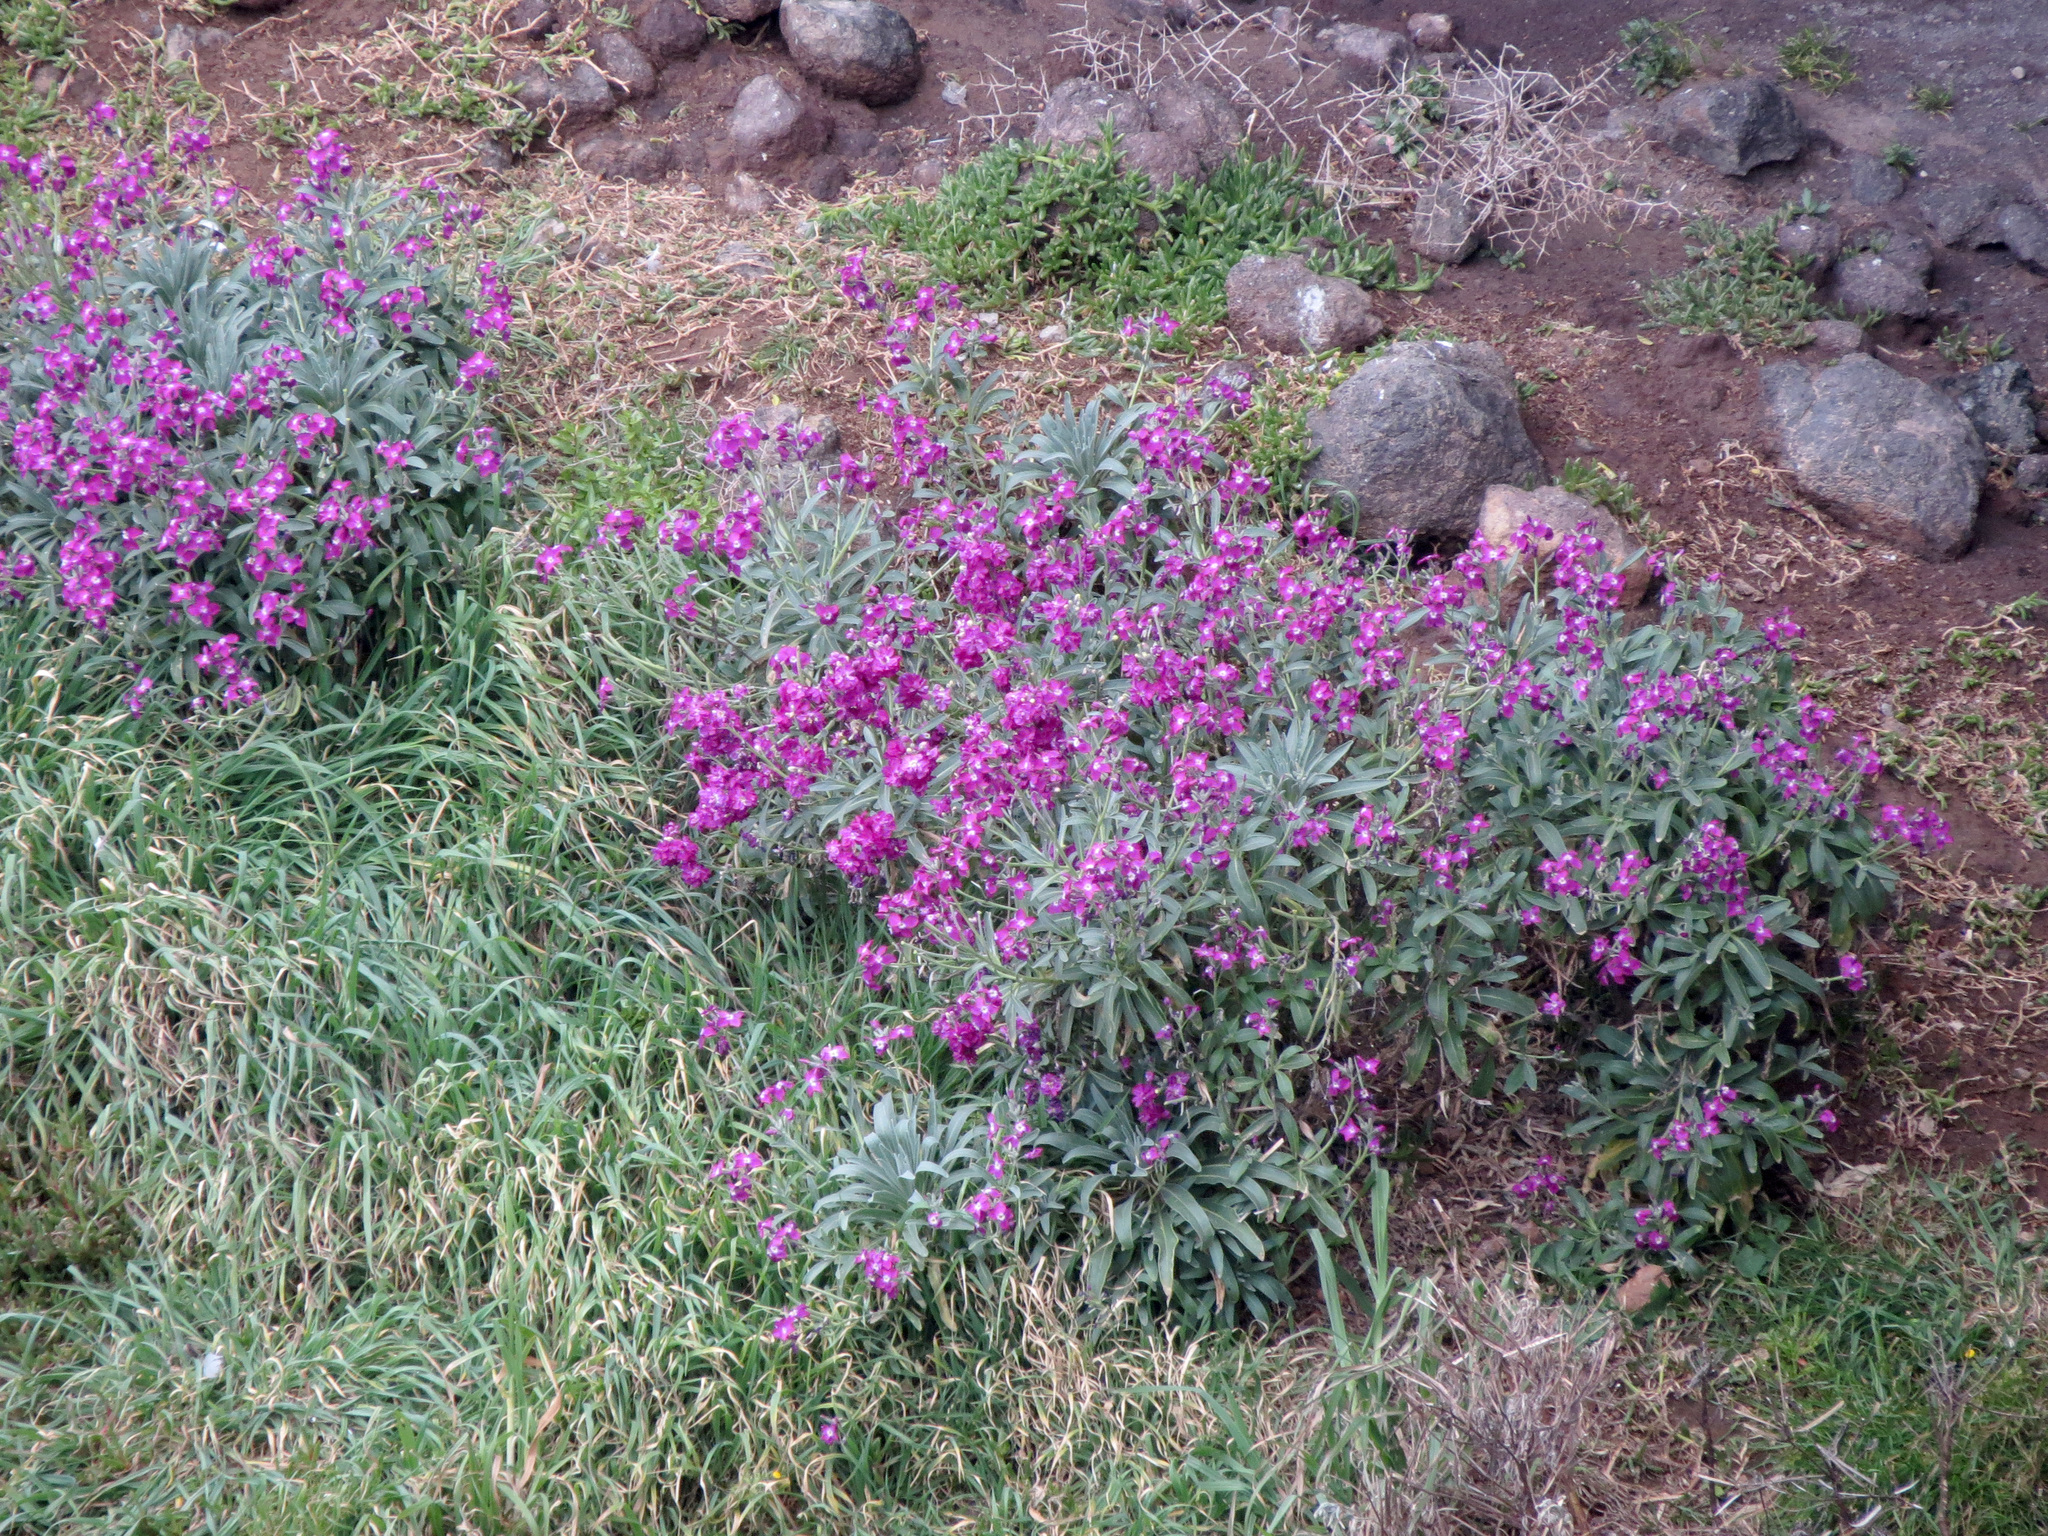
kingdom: Plantae
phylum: Tracheophyta
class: Magnoliopsida
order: Brassicales
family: Brassicaceae
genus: Matthiola
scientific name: Matthiola incana
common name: Hoary stock
